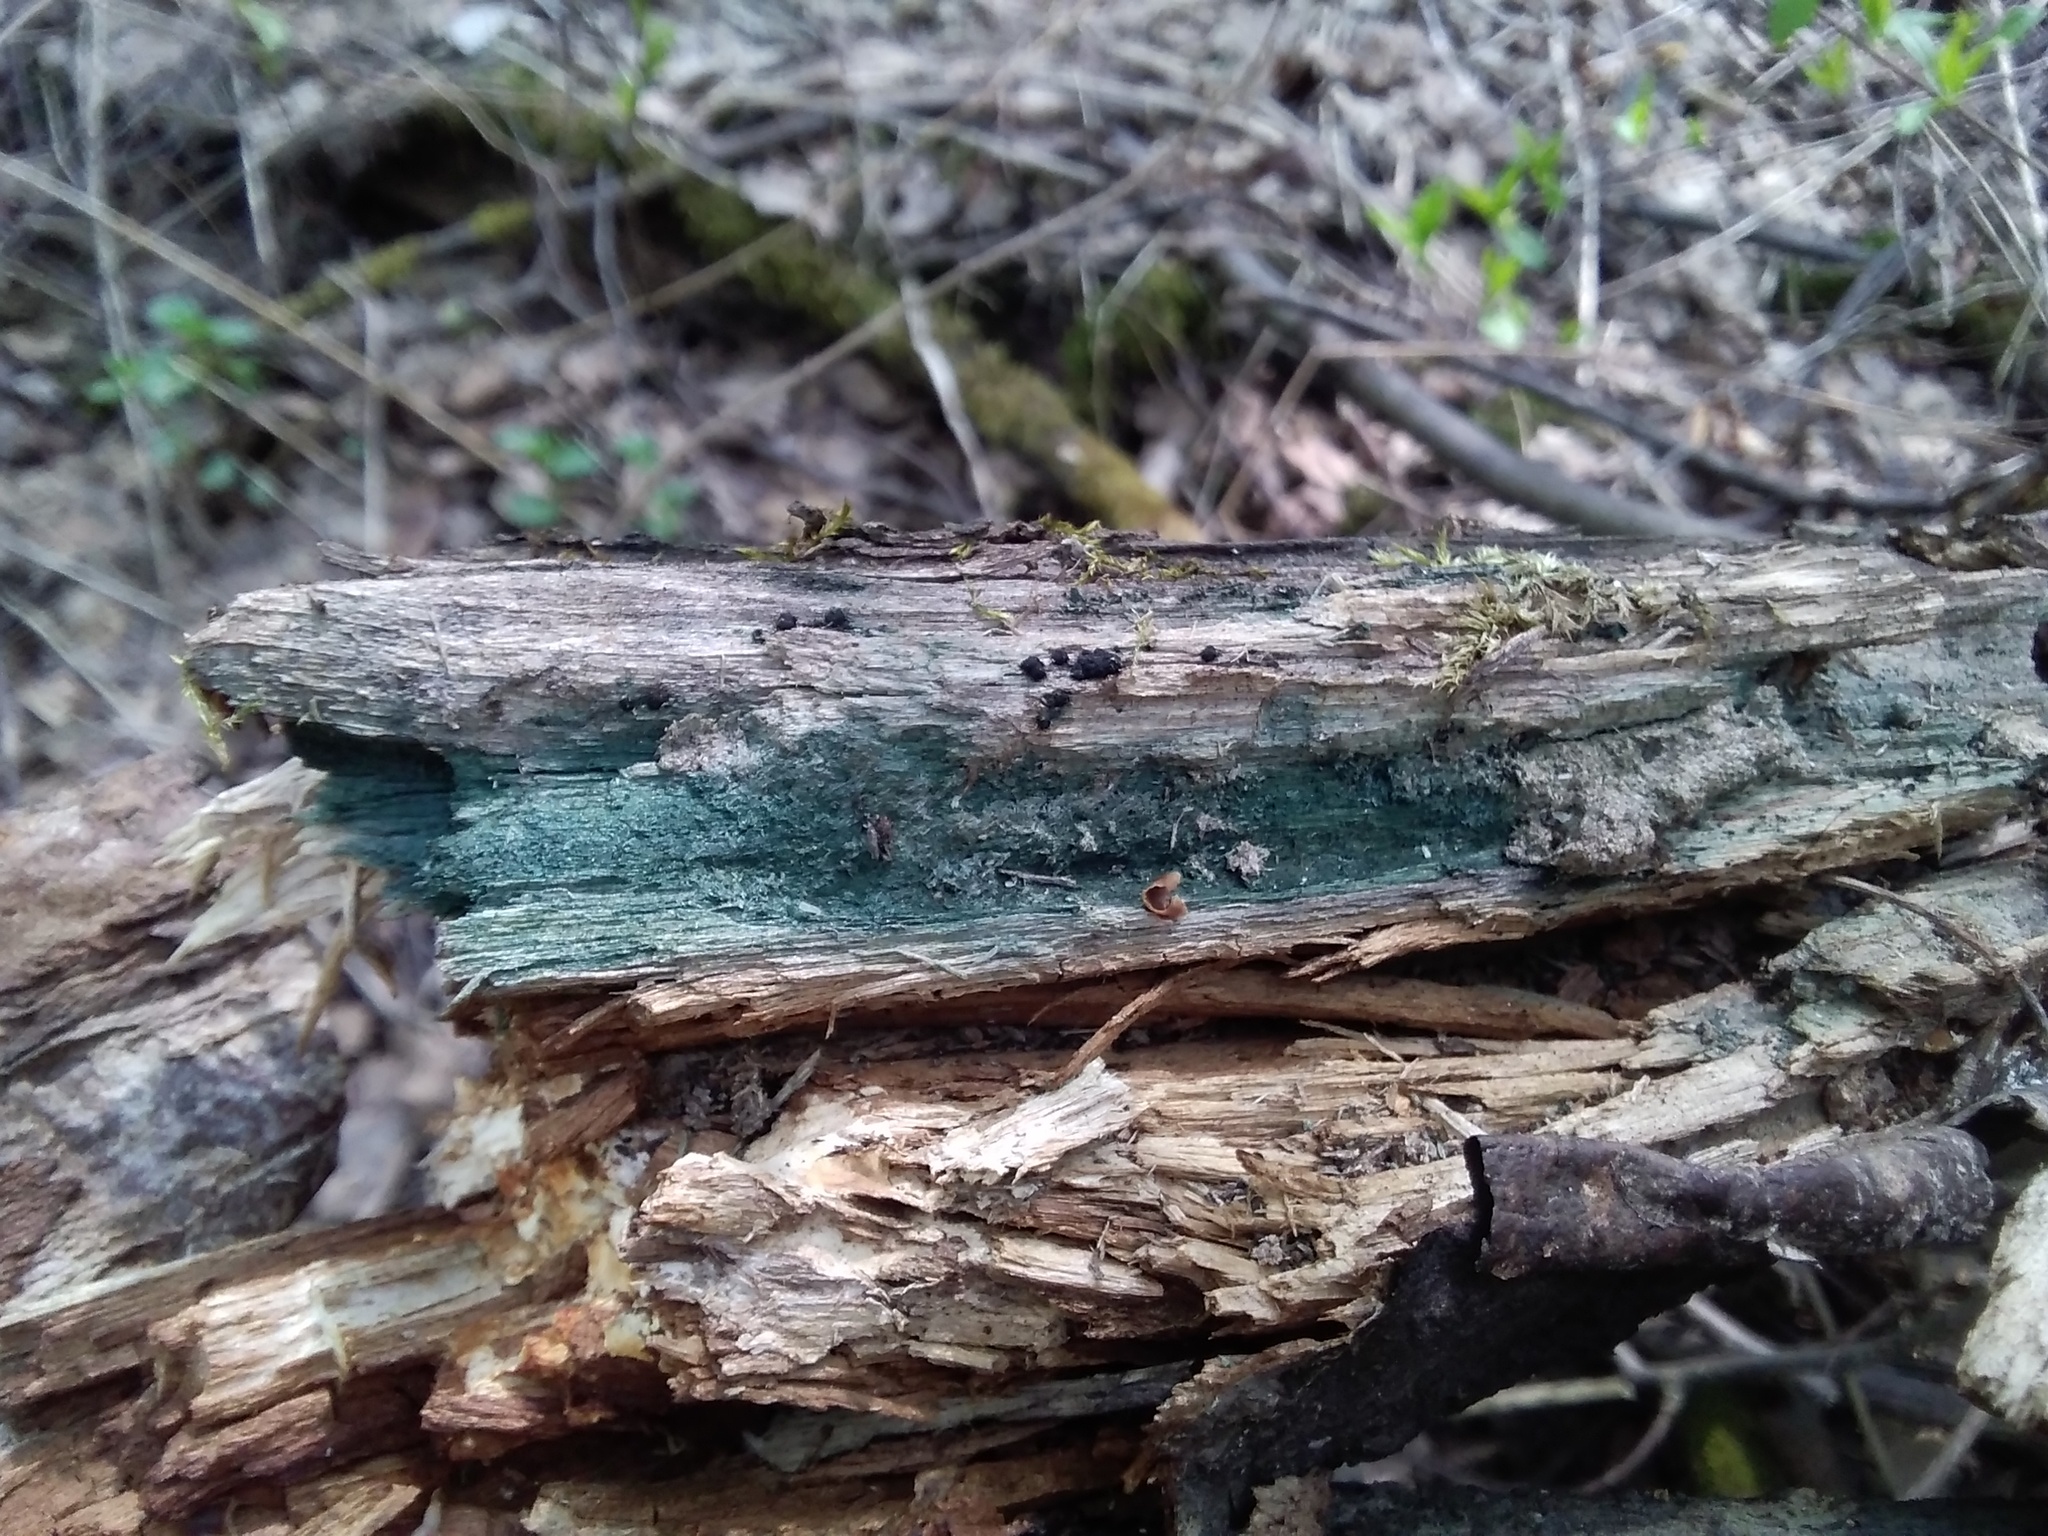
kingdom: Fungi
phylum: Ascomycota
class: Leotiomycetes
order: Helotiales
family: Chlorociboriaceae
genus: Chlorociboria
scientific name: Chlorociboria
